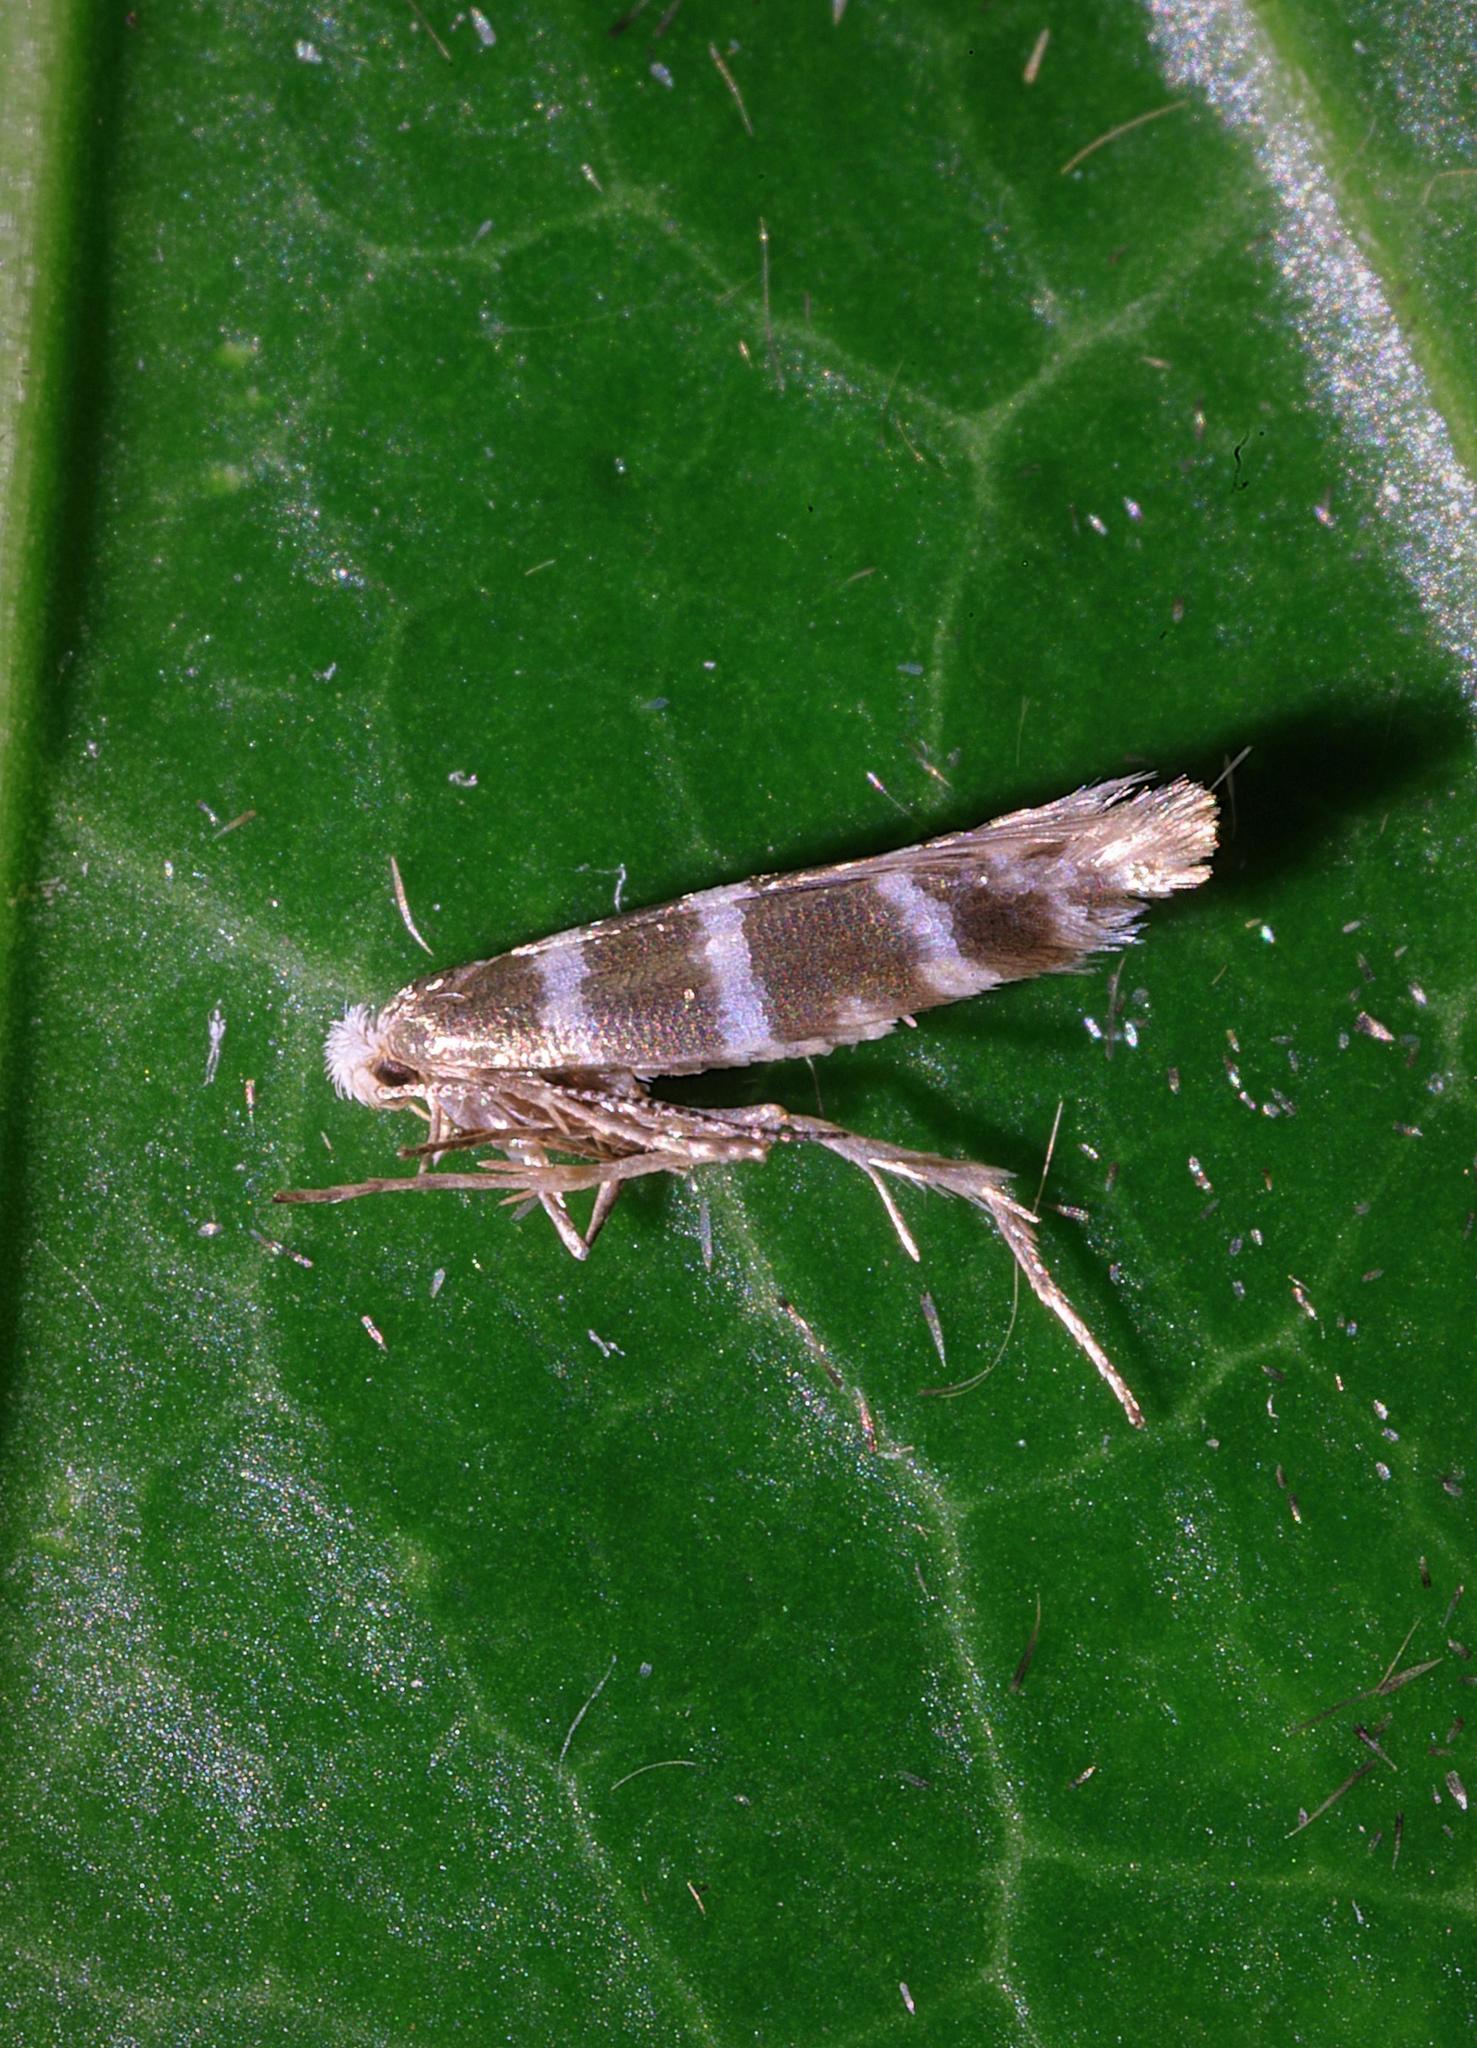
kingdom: Animalia
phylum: Arthropoda
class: Insecta
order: Lepidoptera
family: Argyresthiidae
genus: Argyresthia
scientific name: Argyresthia trifasciata
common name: Triple-barred argent
